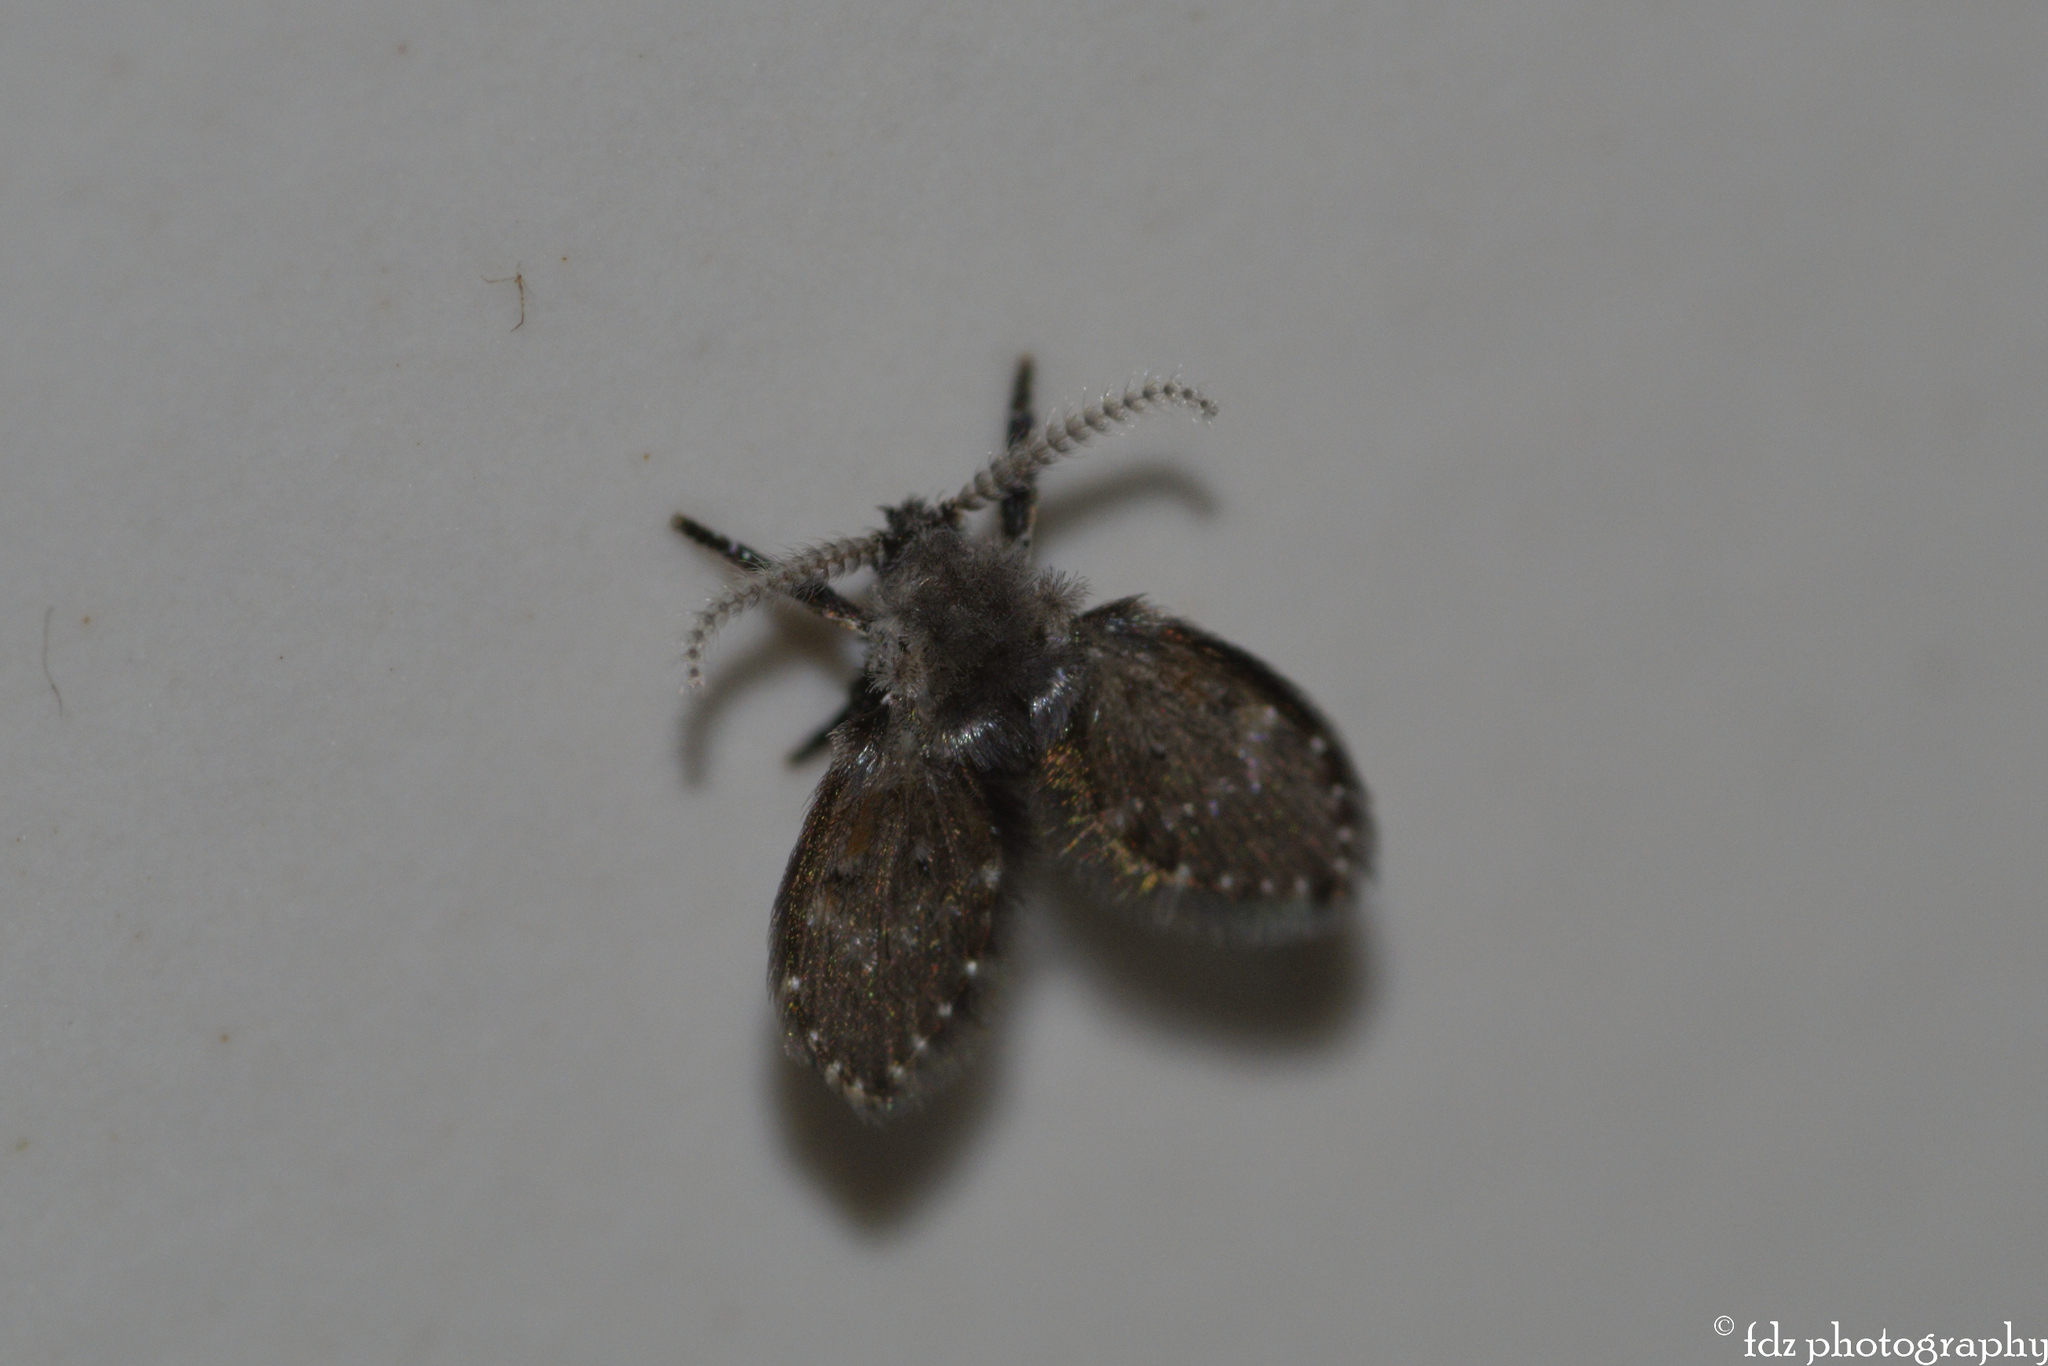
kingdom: Animalia
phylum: Arthropoda
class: Insecta
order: Diptera
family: Psychodidae
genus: Clogmia
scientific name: Clogmia albipunctatus
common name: White-spotted moth fly
